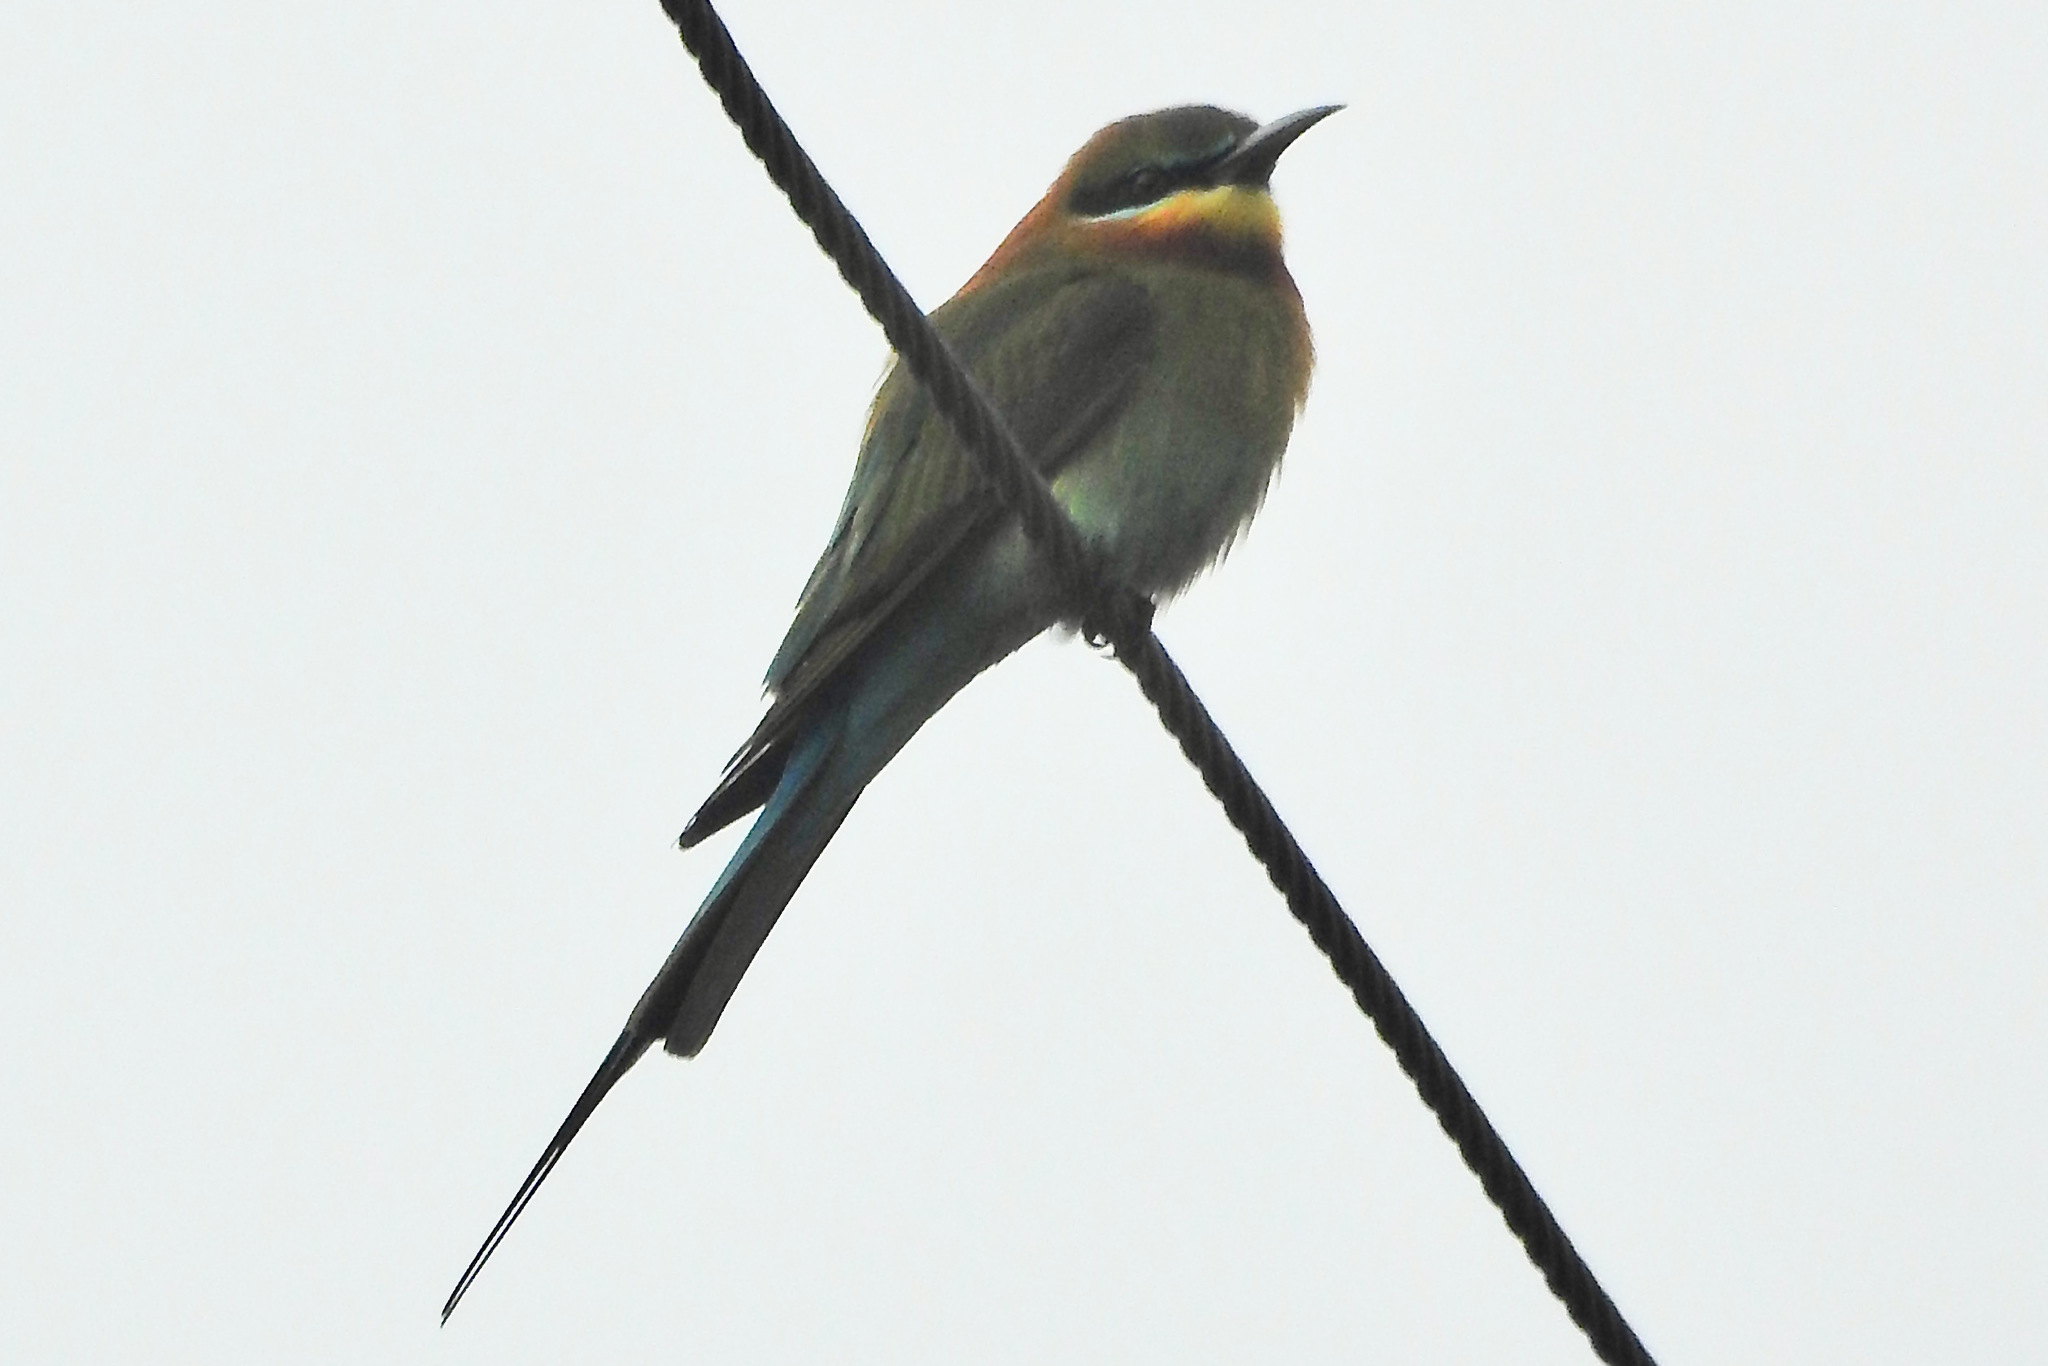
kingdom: Animalia
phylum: Chordata
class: Aves
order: Coraciiformes
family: Meropidae
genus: Merops
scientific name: Merops philippinus
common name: Blue-tailed bee-eater
